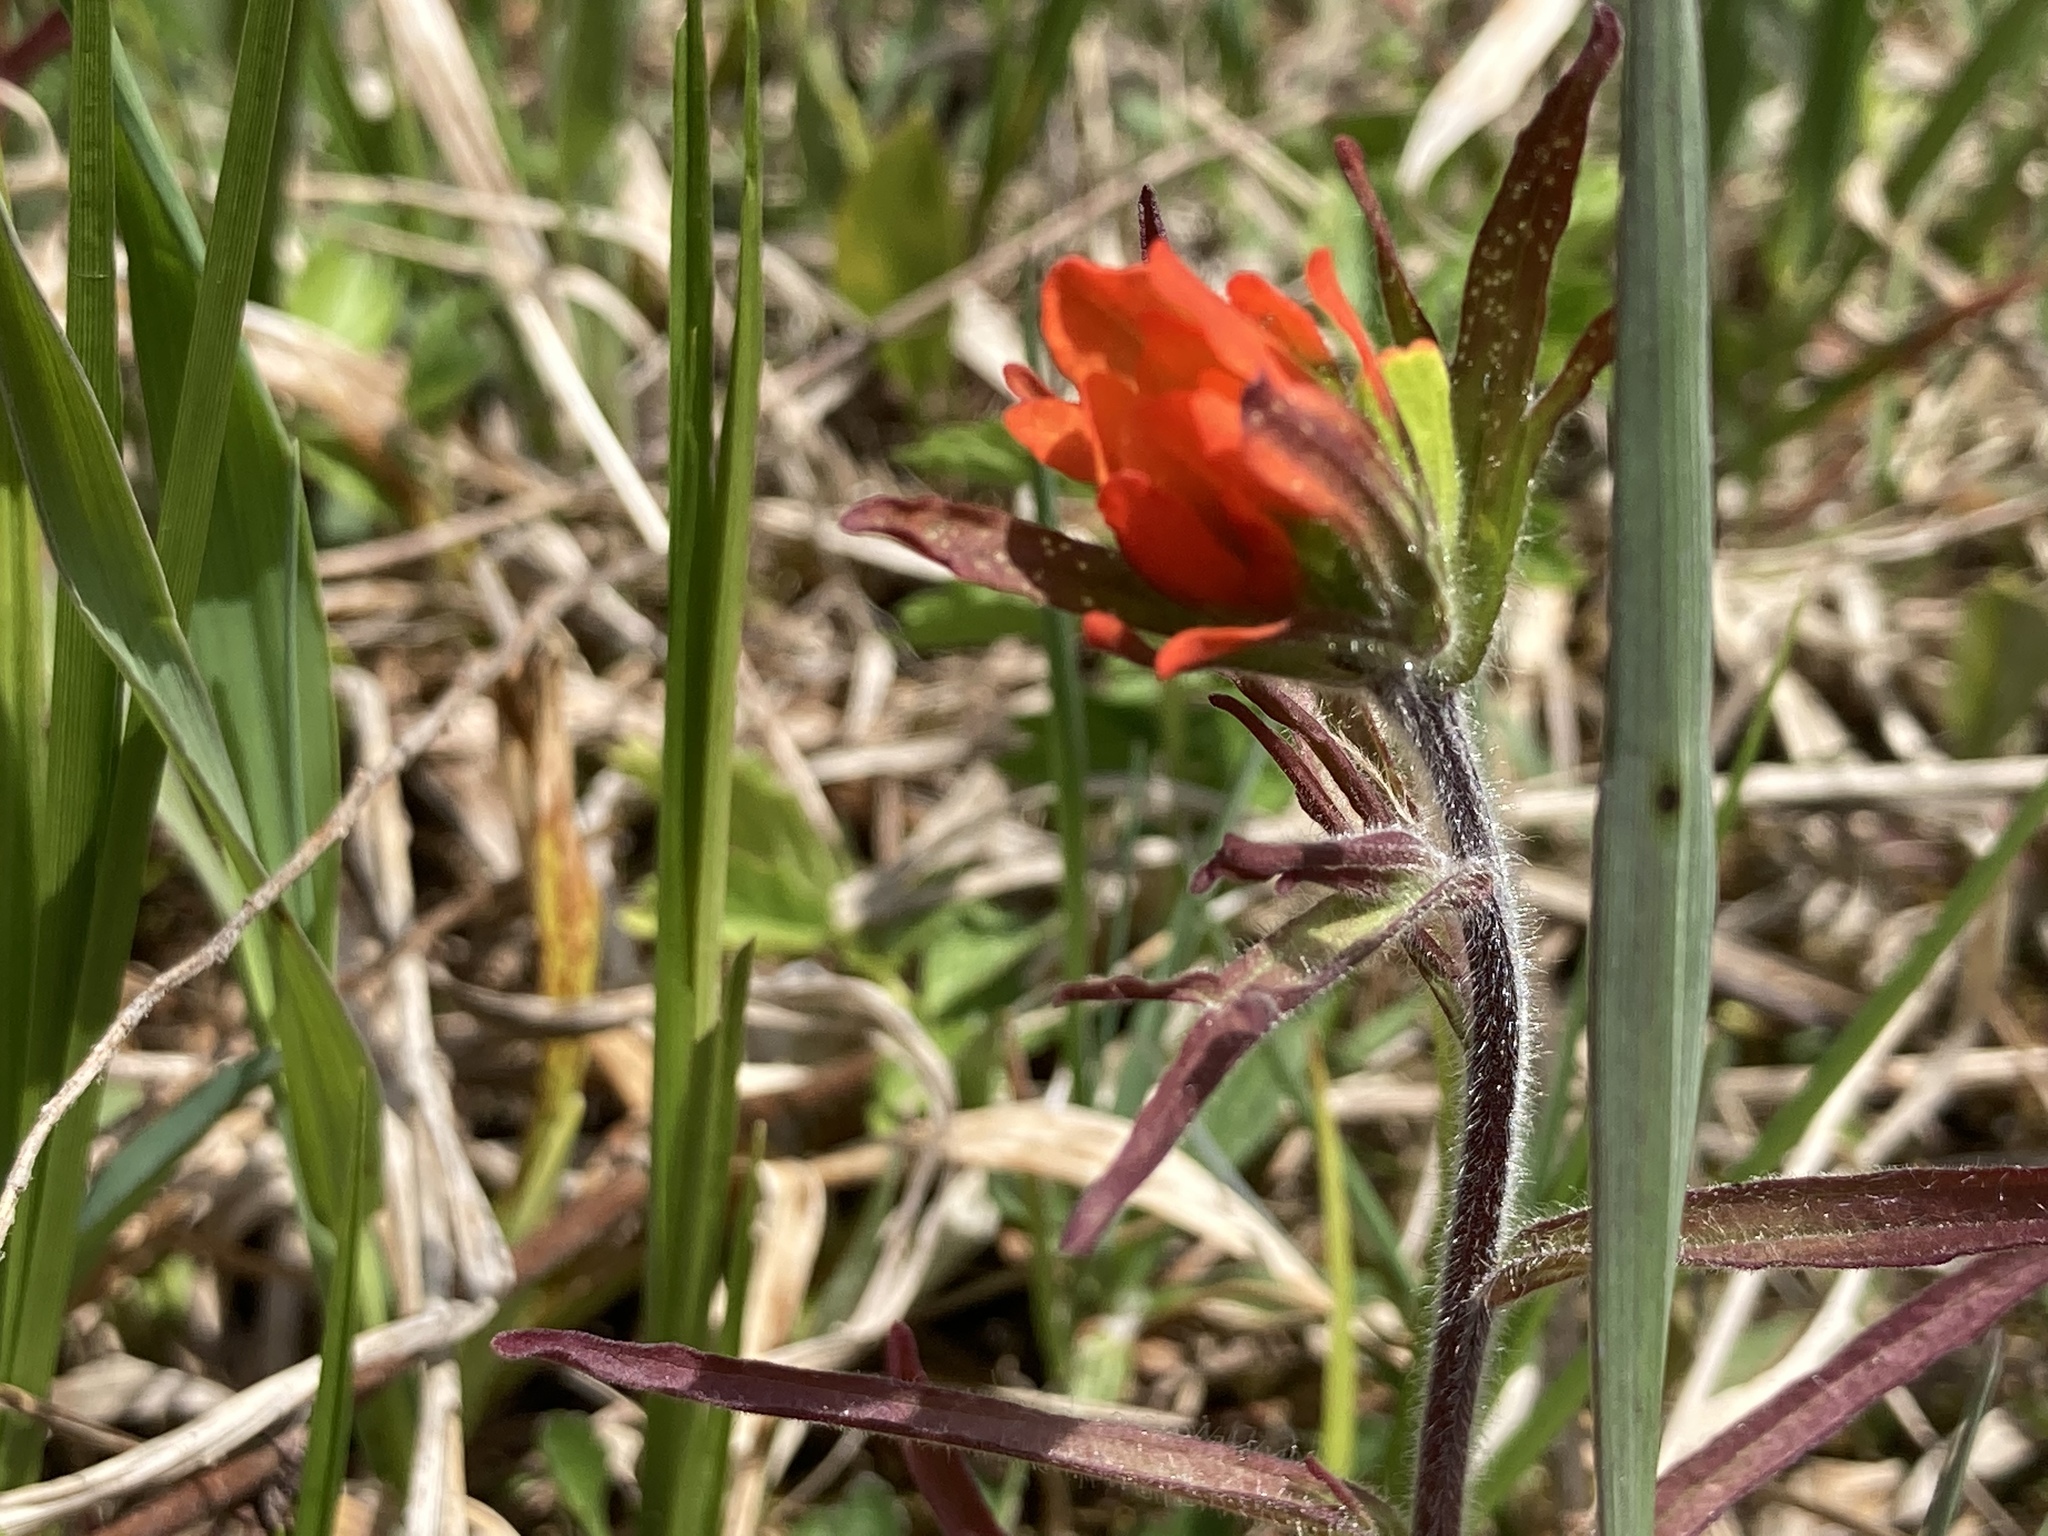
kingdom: Plantae
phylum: Tracheophyta
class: Magnoliopsida
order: Lamiales
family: Orobanchaceae
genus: Castilleja
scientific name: Castilleja coccinea
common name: Scarlet paintbrush
